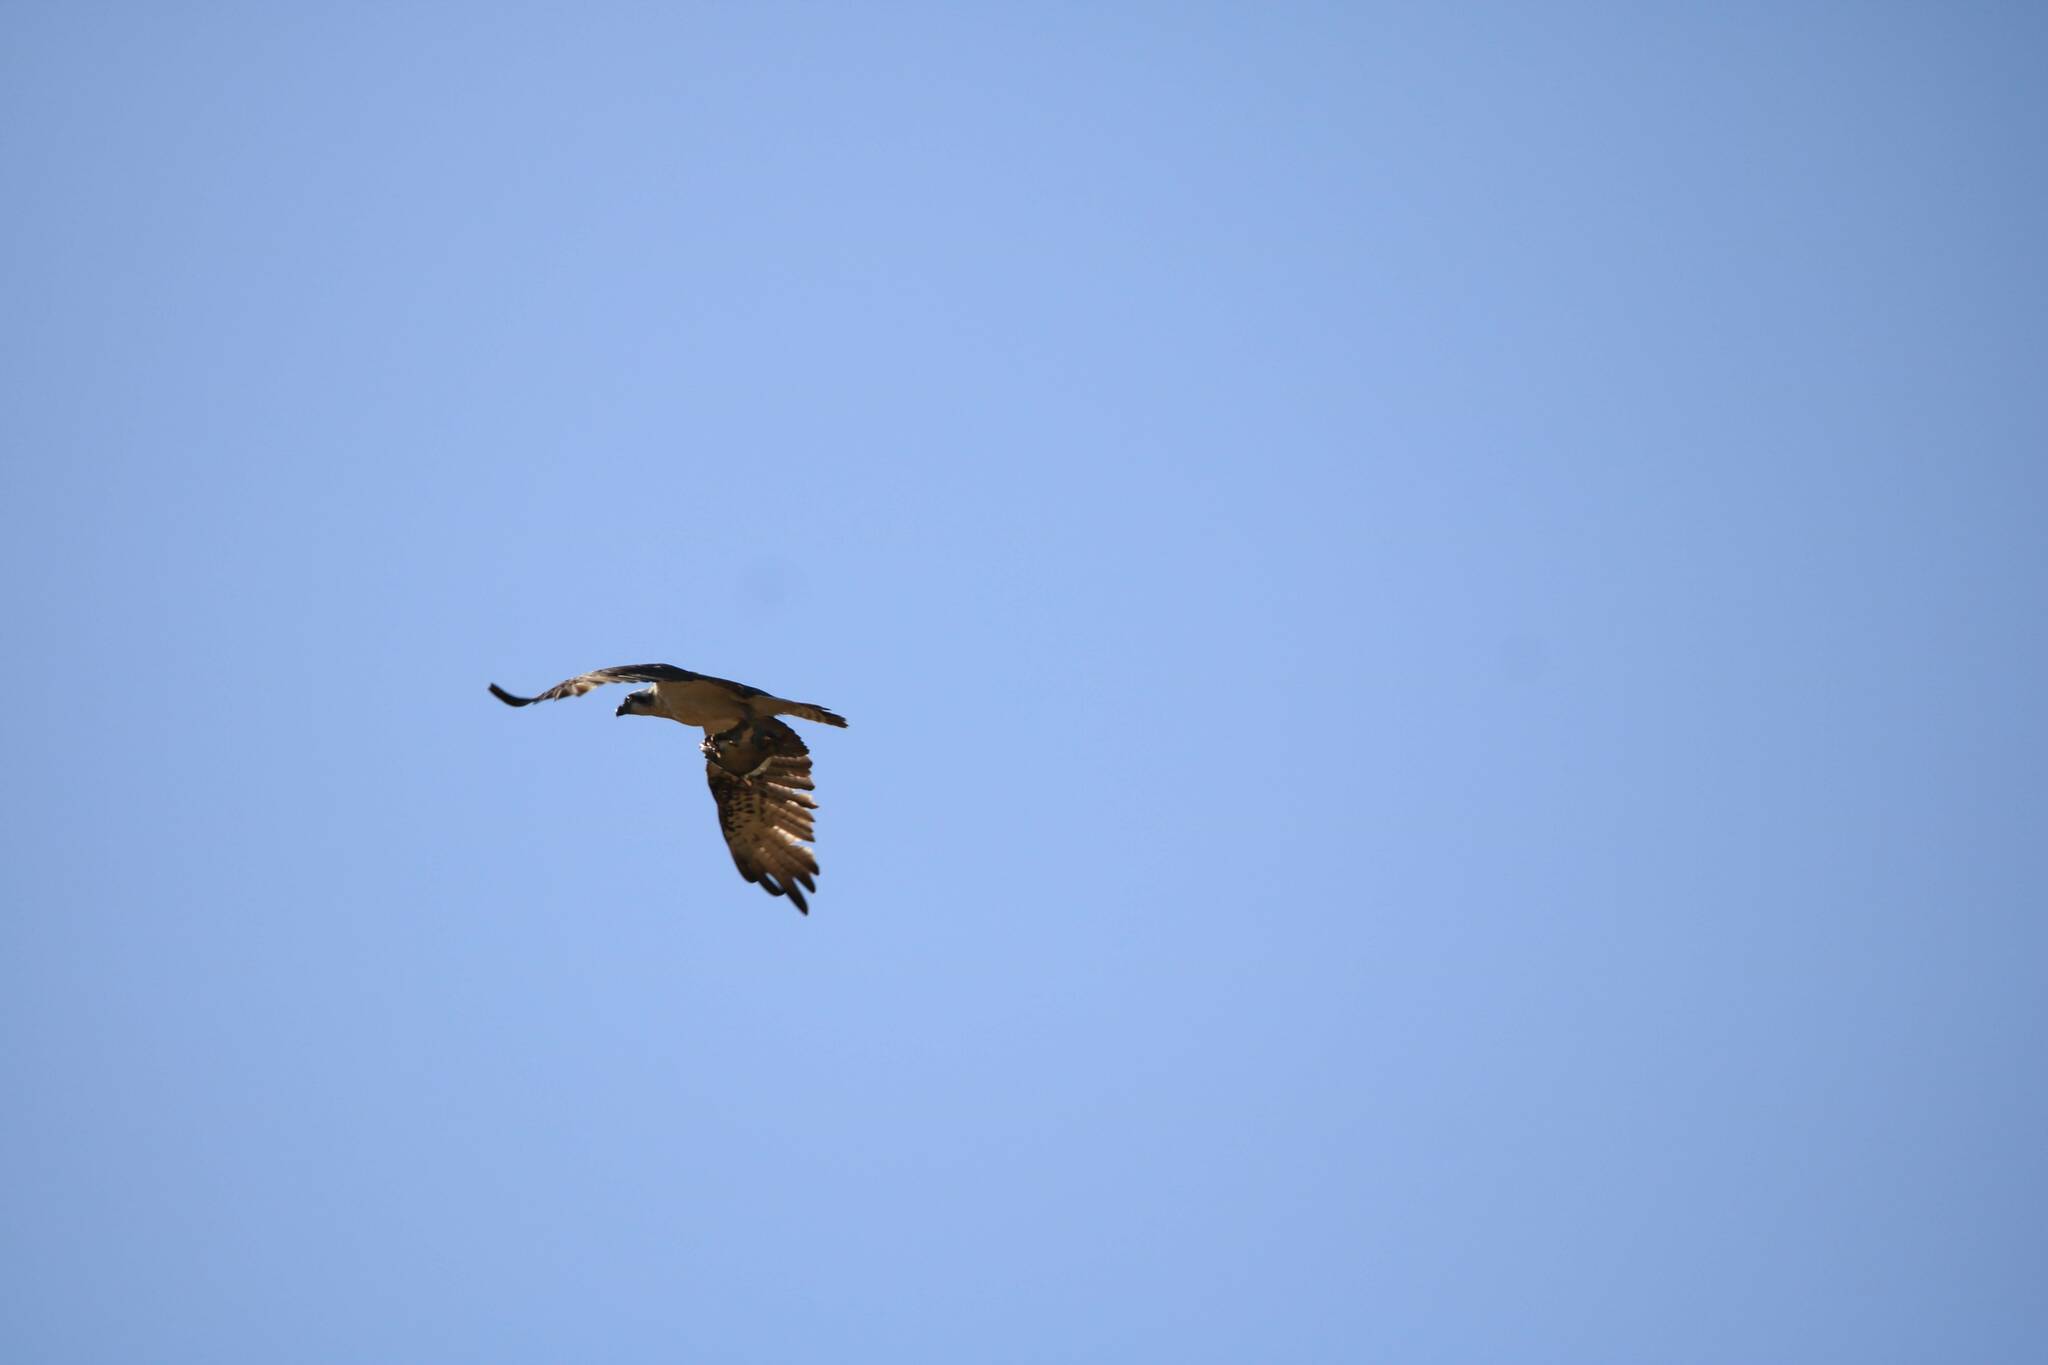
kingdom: Animalia
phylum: Chordata
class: Aves
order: Accipitriformes
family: Pandionidae
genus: Pandion
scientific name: Pandion haliaetus
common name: Osprey
